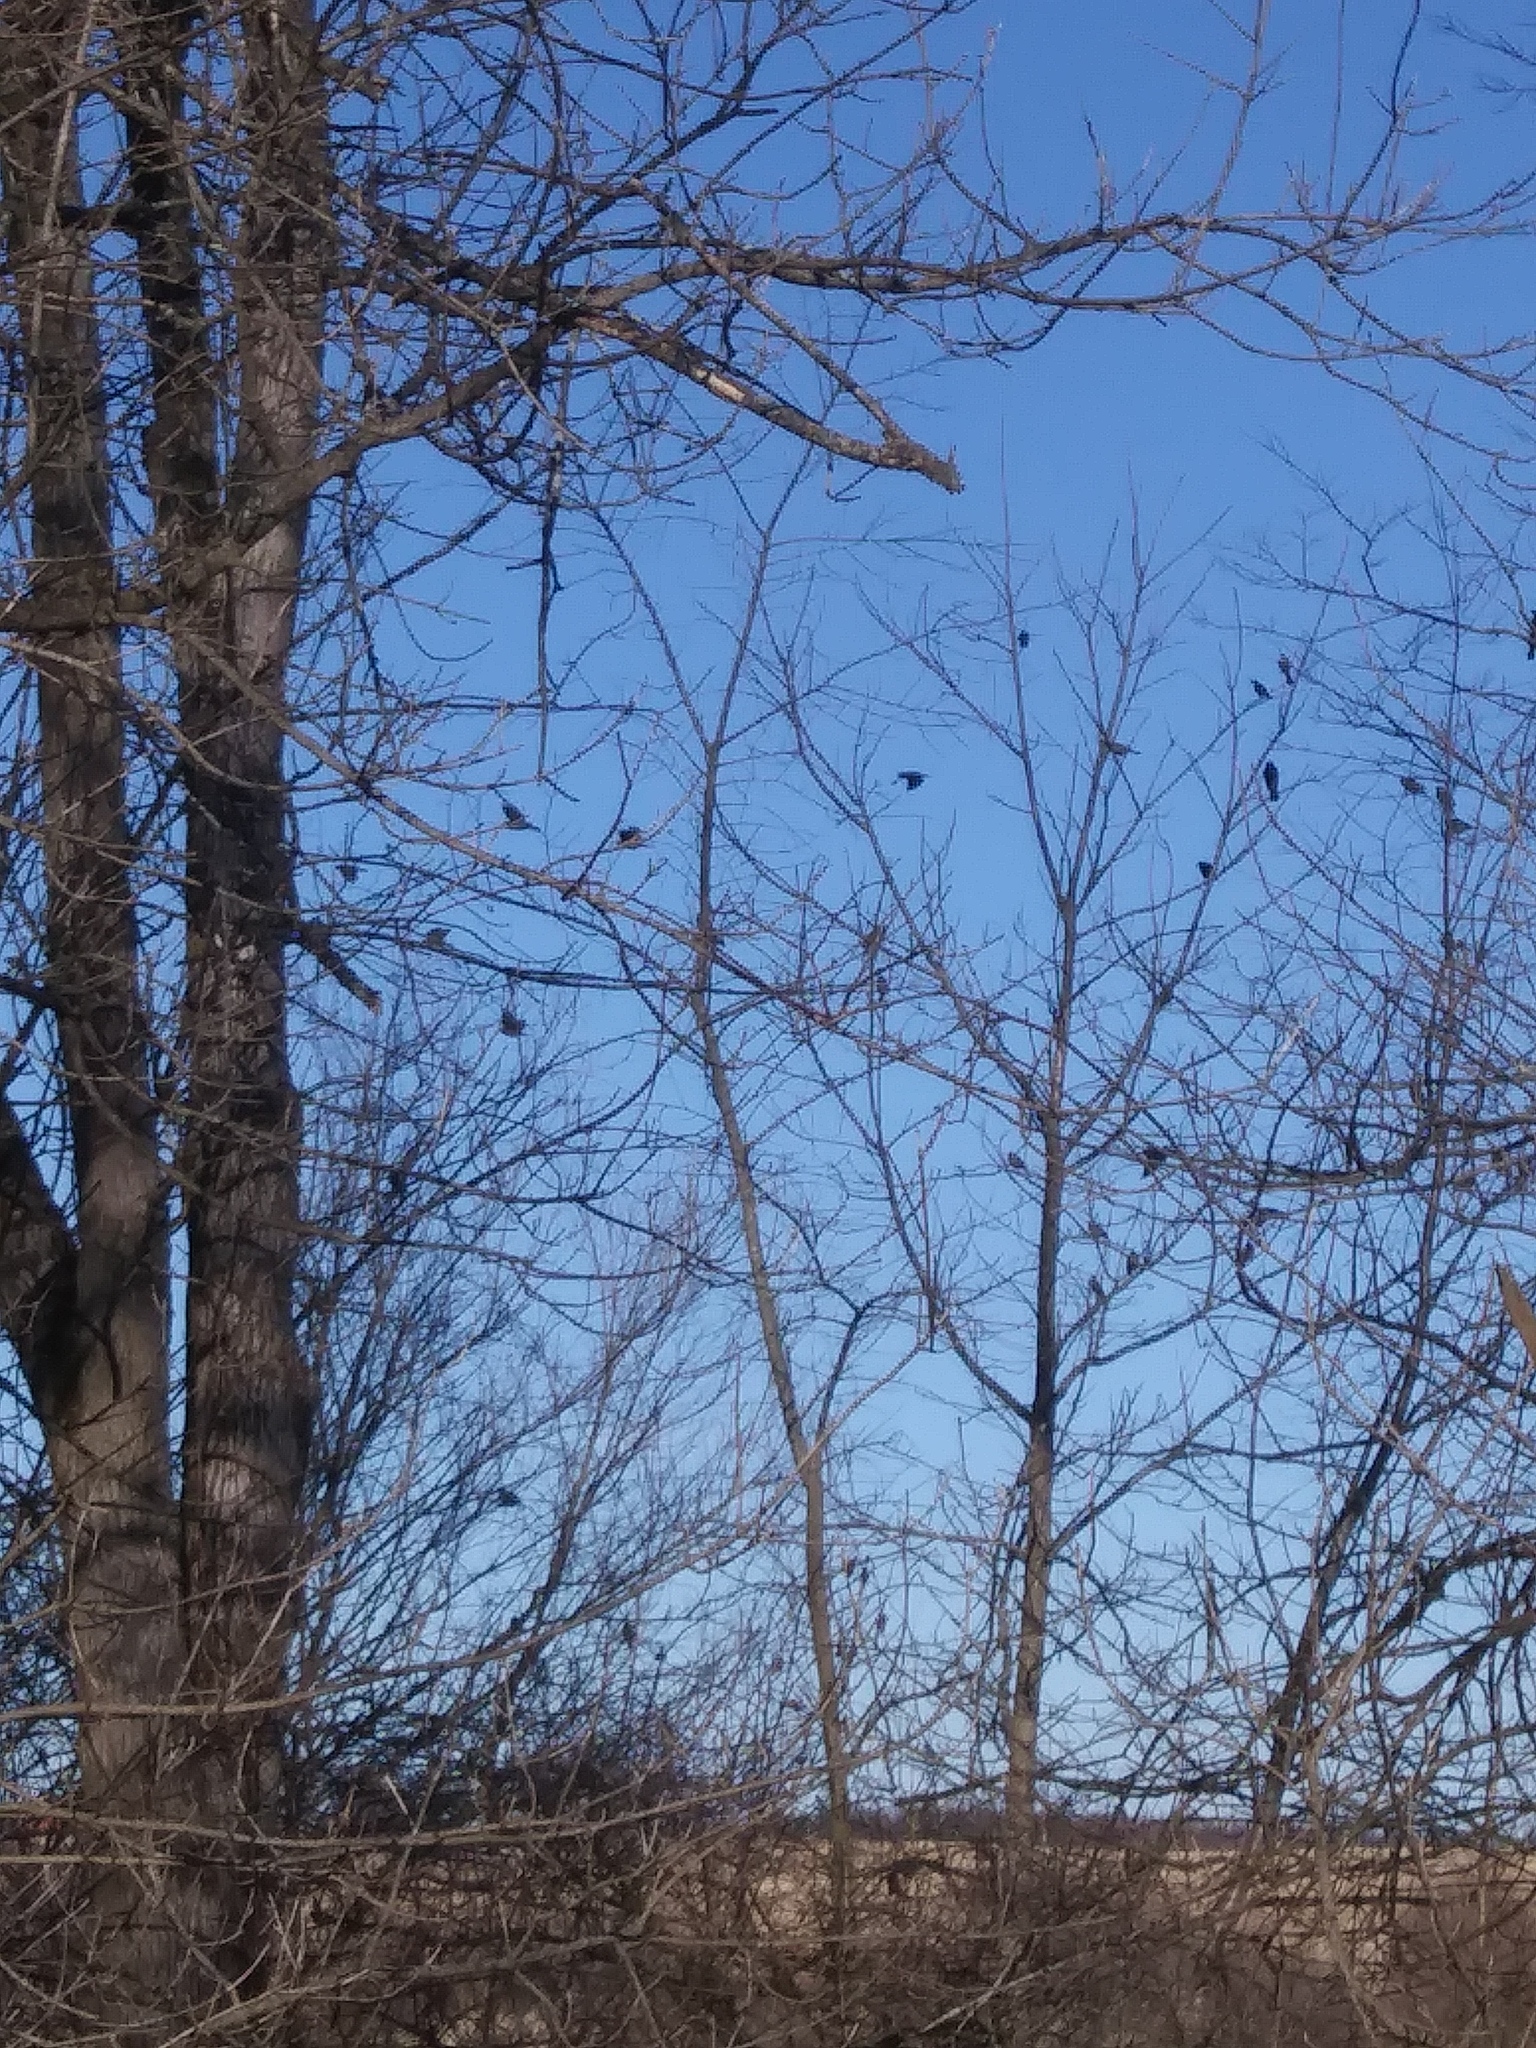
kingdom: Animalia
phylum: Chordata
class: Aves
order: Passeriformes
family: Icteridae
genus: Agelaius
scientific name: Agelaius phoeniceus
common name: Red-winged blackbird
